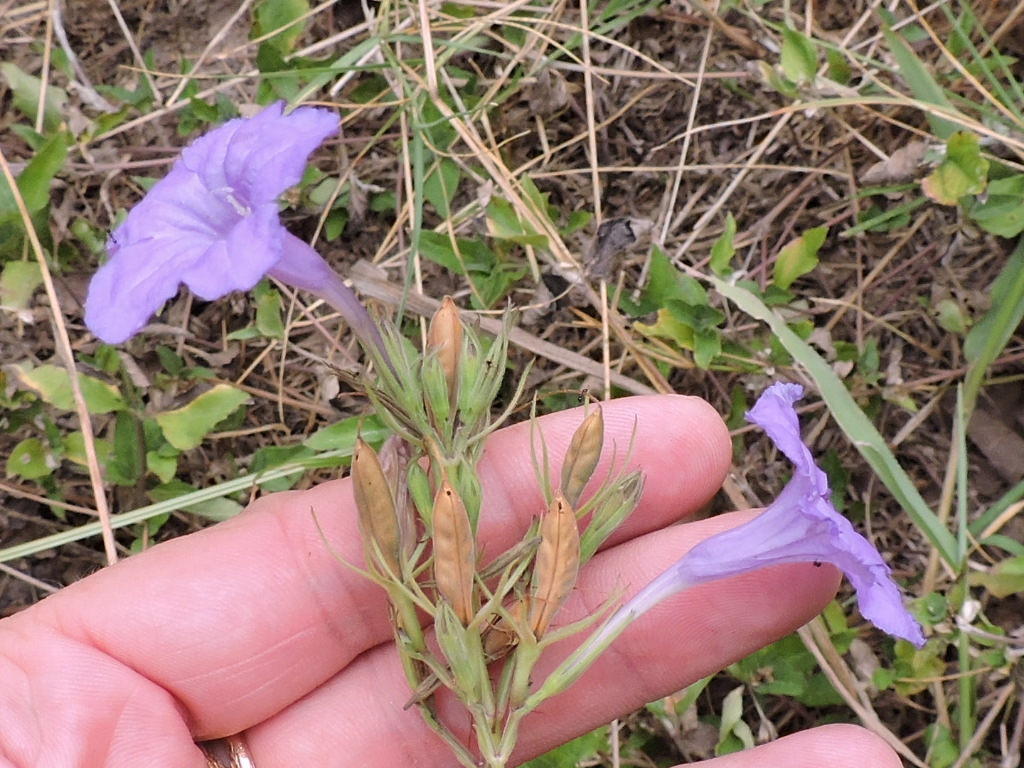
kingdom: Plantae
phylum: Tracheophyta
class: Magnoliopsida
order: Lamiales
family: Acanthaceae
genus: Ruellia
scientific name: Ruellia ciliatiflora
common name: Hairyflower wild petunia
